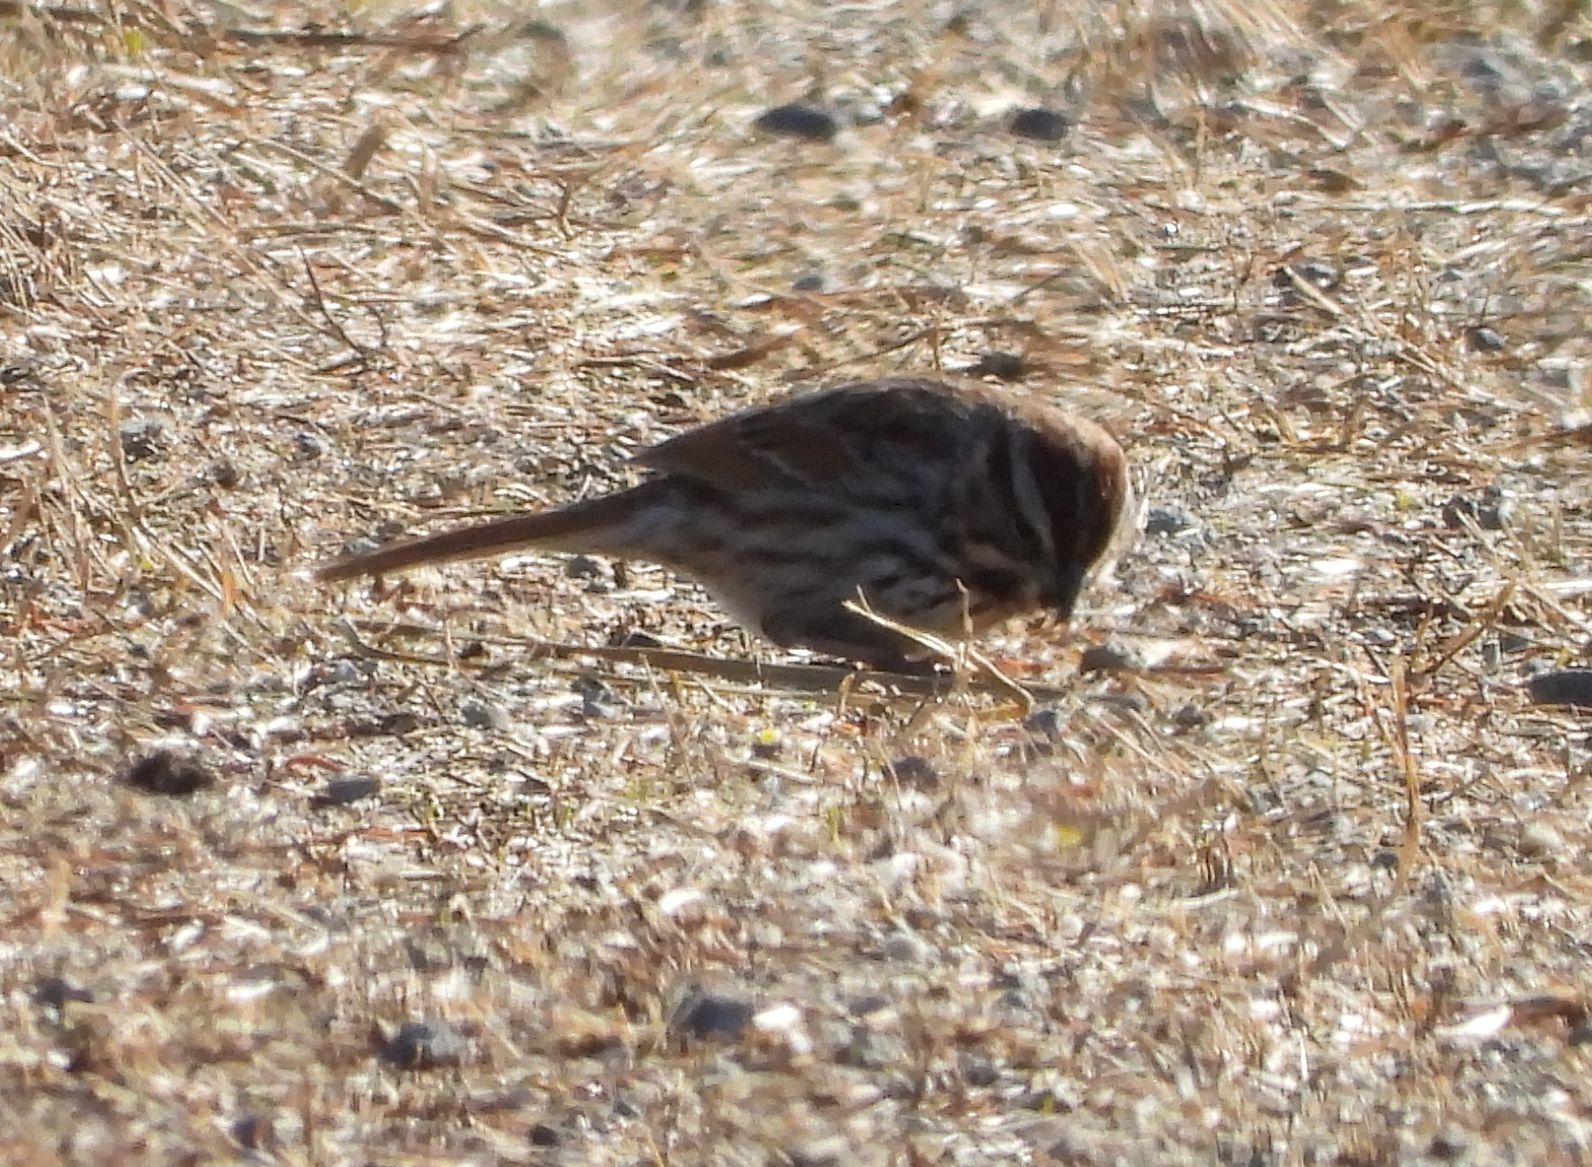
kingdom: Animalia
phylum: Chordata
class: Aves
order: Passeriformes
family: Passerellidae
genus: Melospiza
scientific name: Melospiza melodia
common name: Song sparrow
